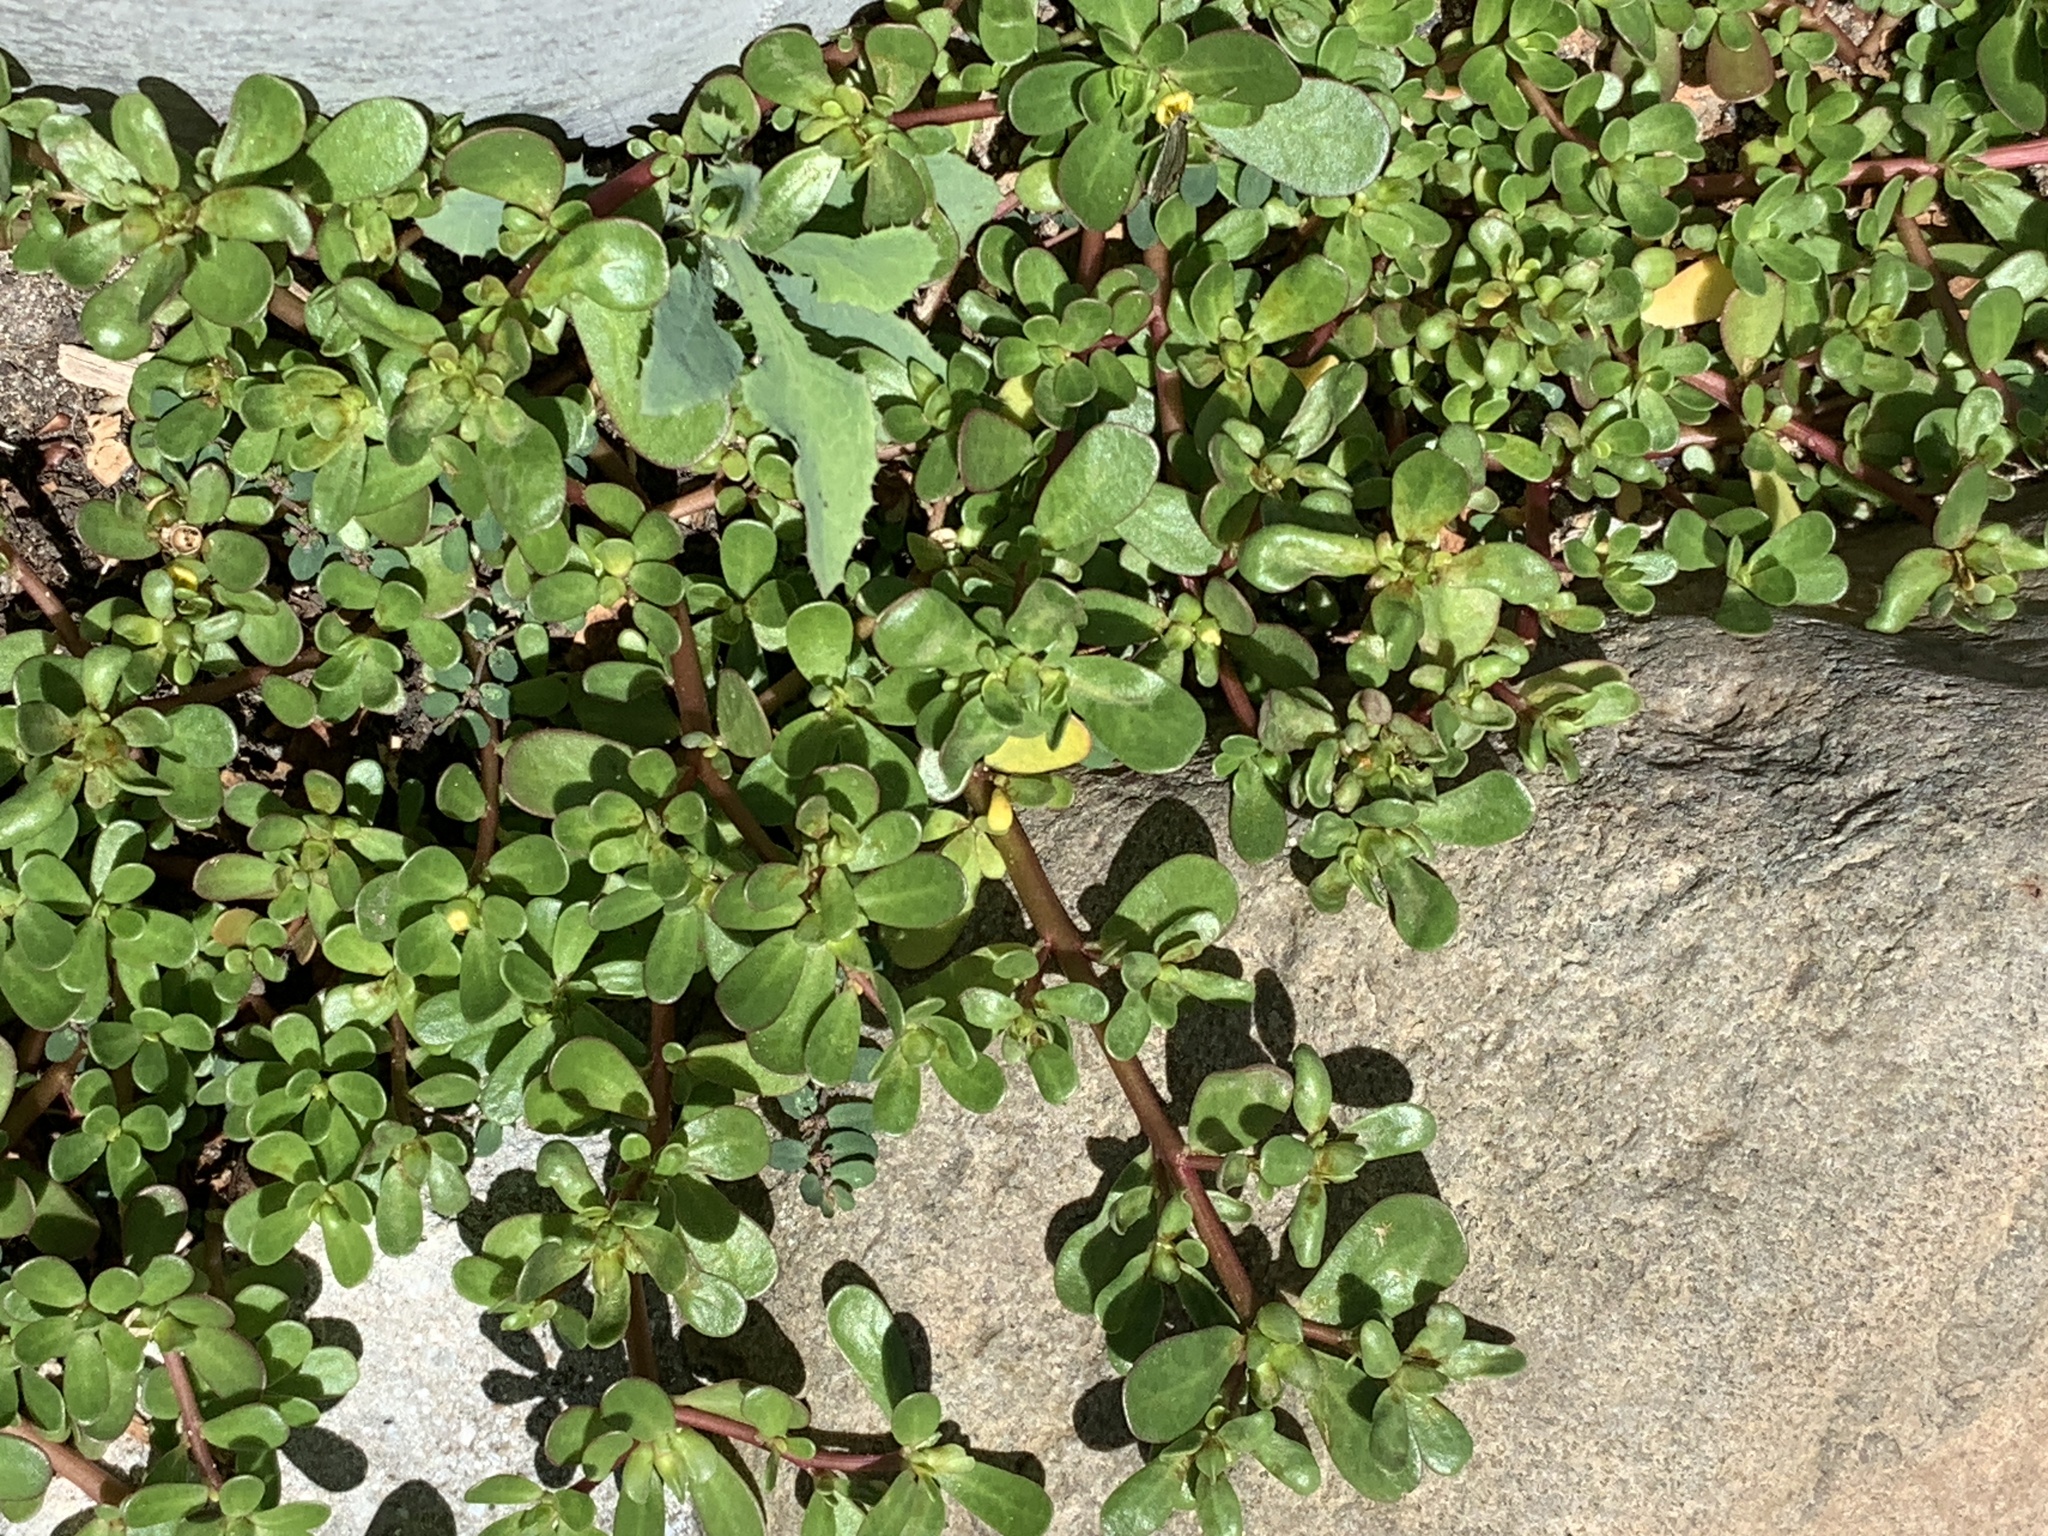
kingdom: Plantae
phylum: Tracheophyta
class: Magnoliopsida
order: Caryophyllales
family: Portulacaceae
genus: Portulaca
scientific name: Portulaca oleracea
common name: Common purslane
